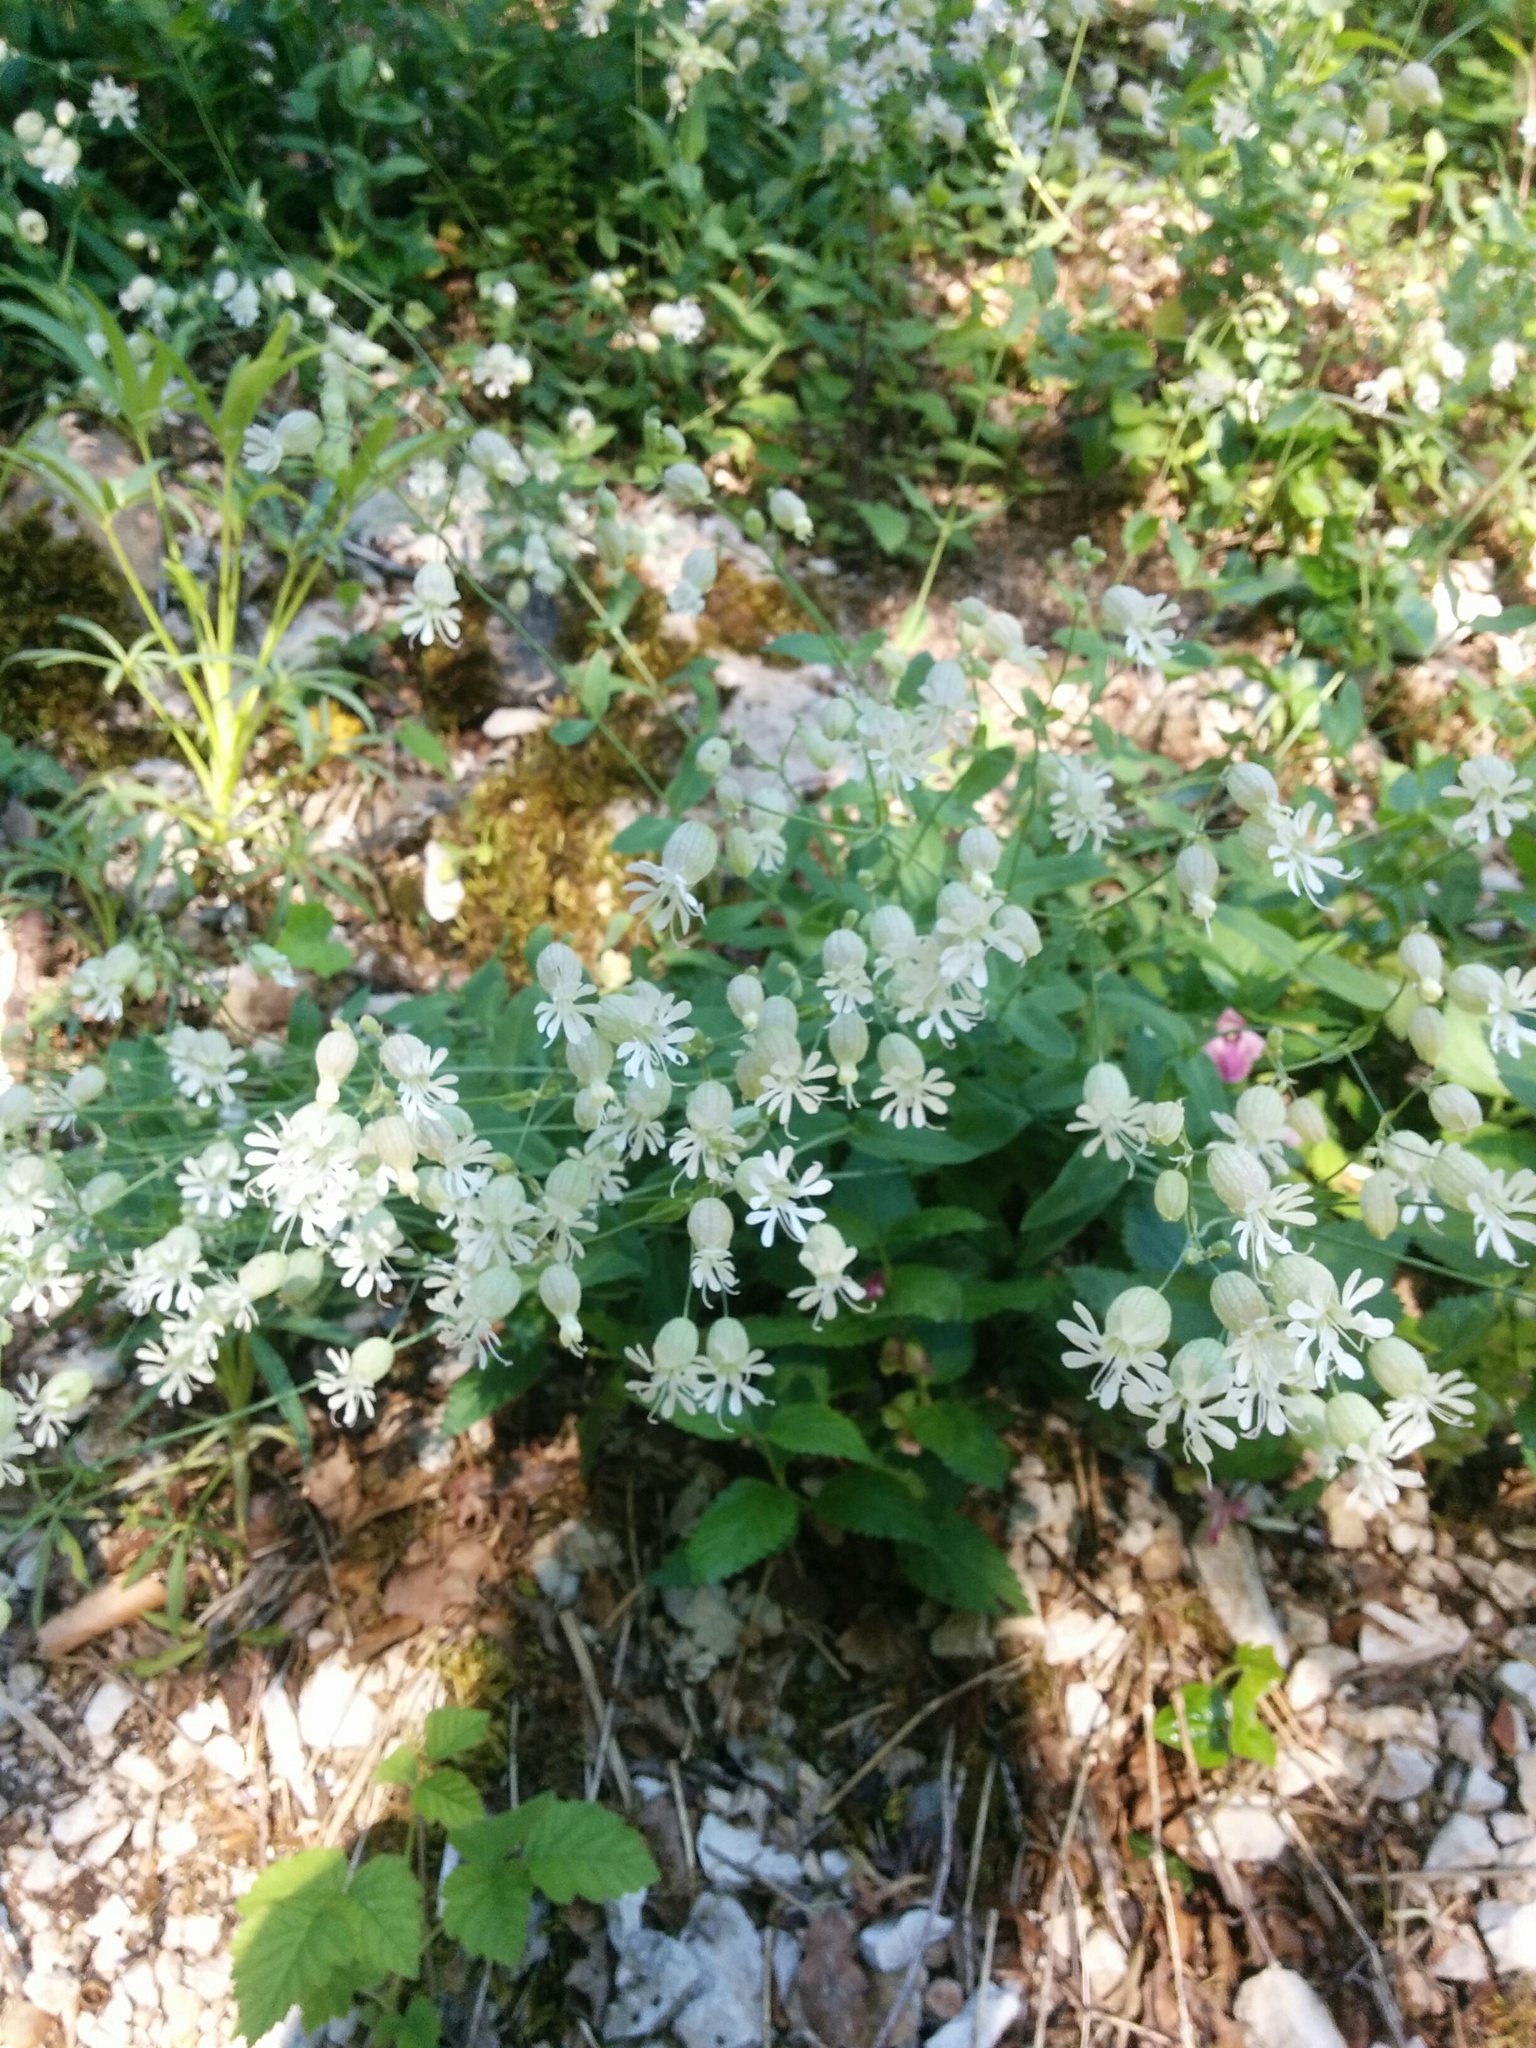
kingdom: Plantae
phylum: Tracheophyta
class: Magnoliopsida
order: Caryophyllales
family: Caryophyllaceae
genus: Silene
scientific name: Silene vulgaris
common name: Bladder campion
